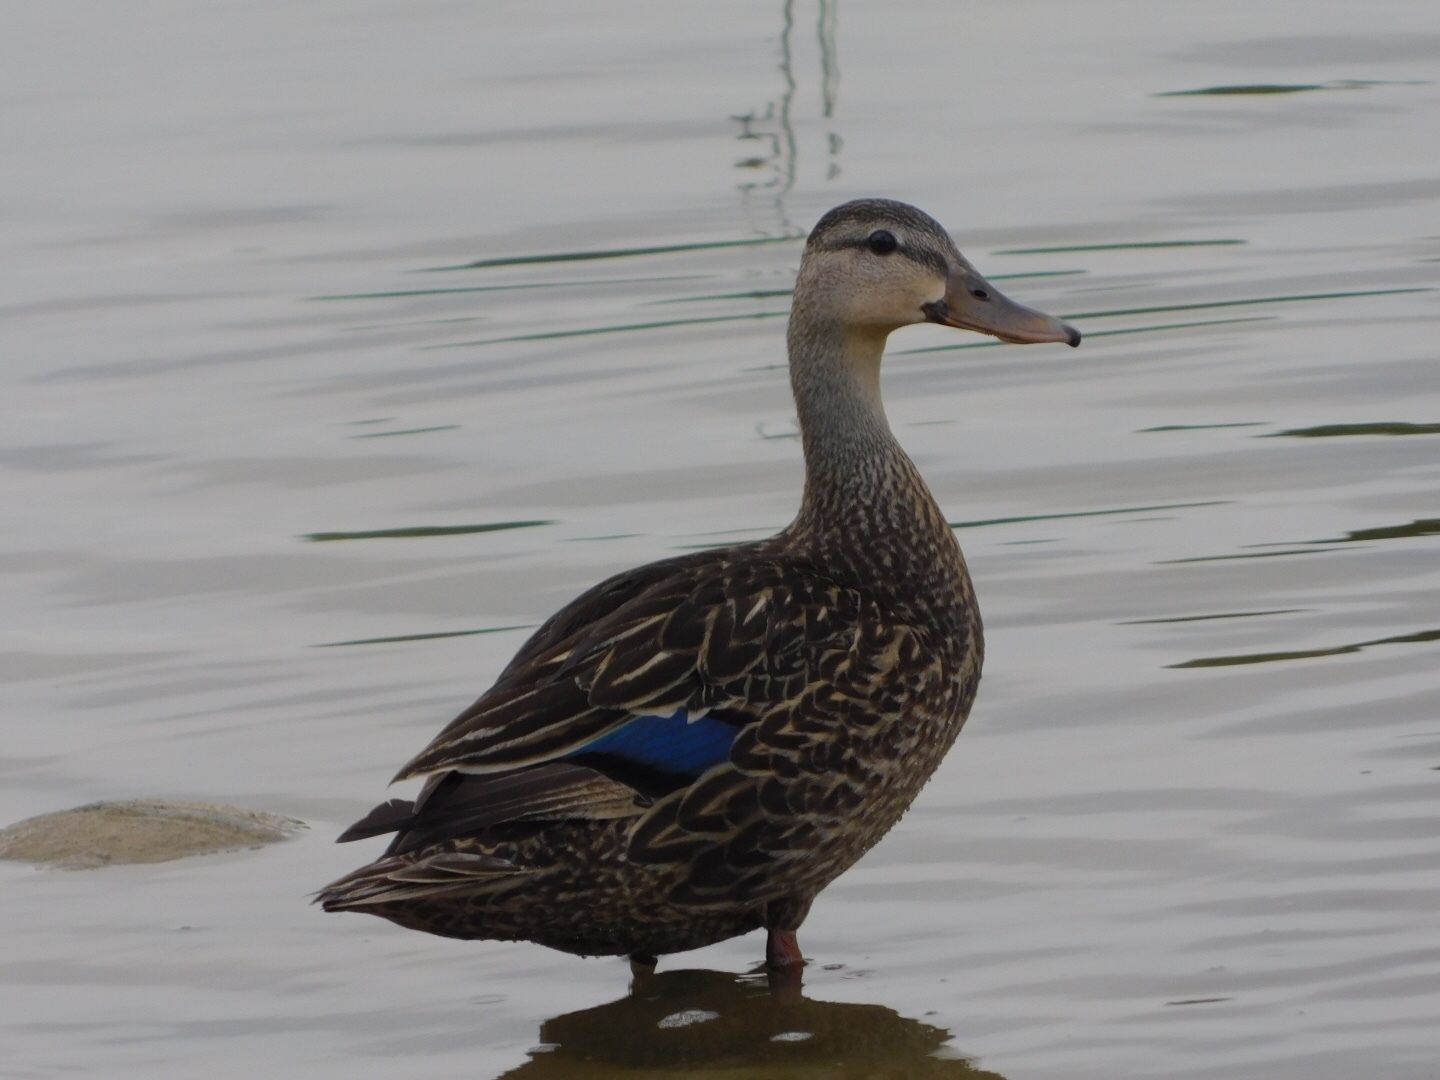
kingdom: Animalia
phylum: Chordata
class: Aves
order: Anseriformes
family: Anatidae
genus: Anas
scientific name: Anas fulvigula
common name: Mottled duck
